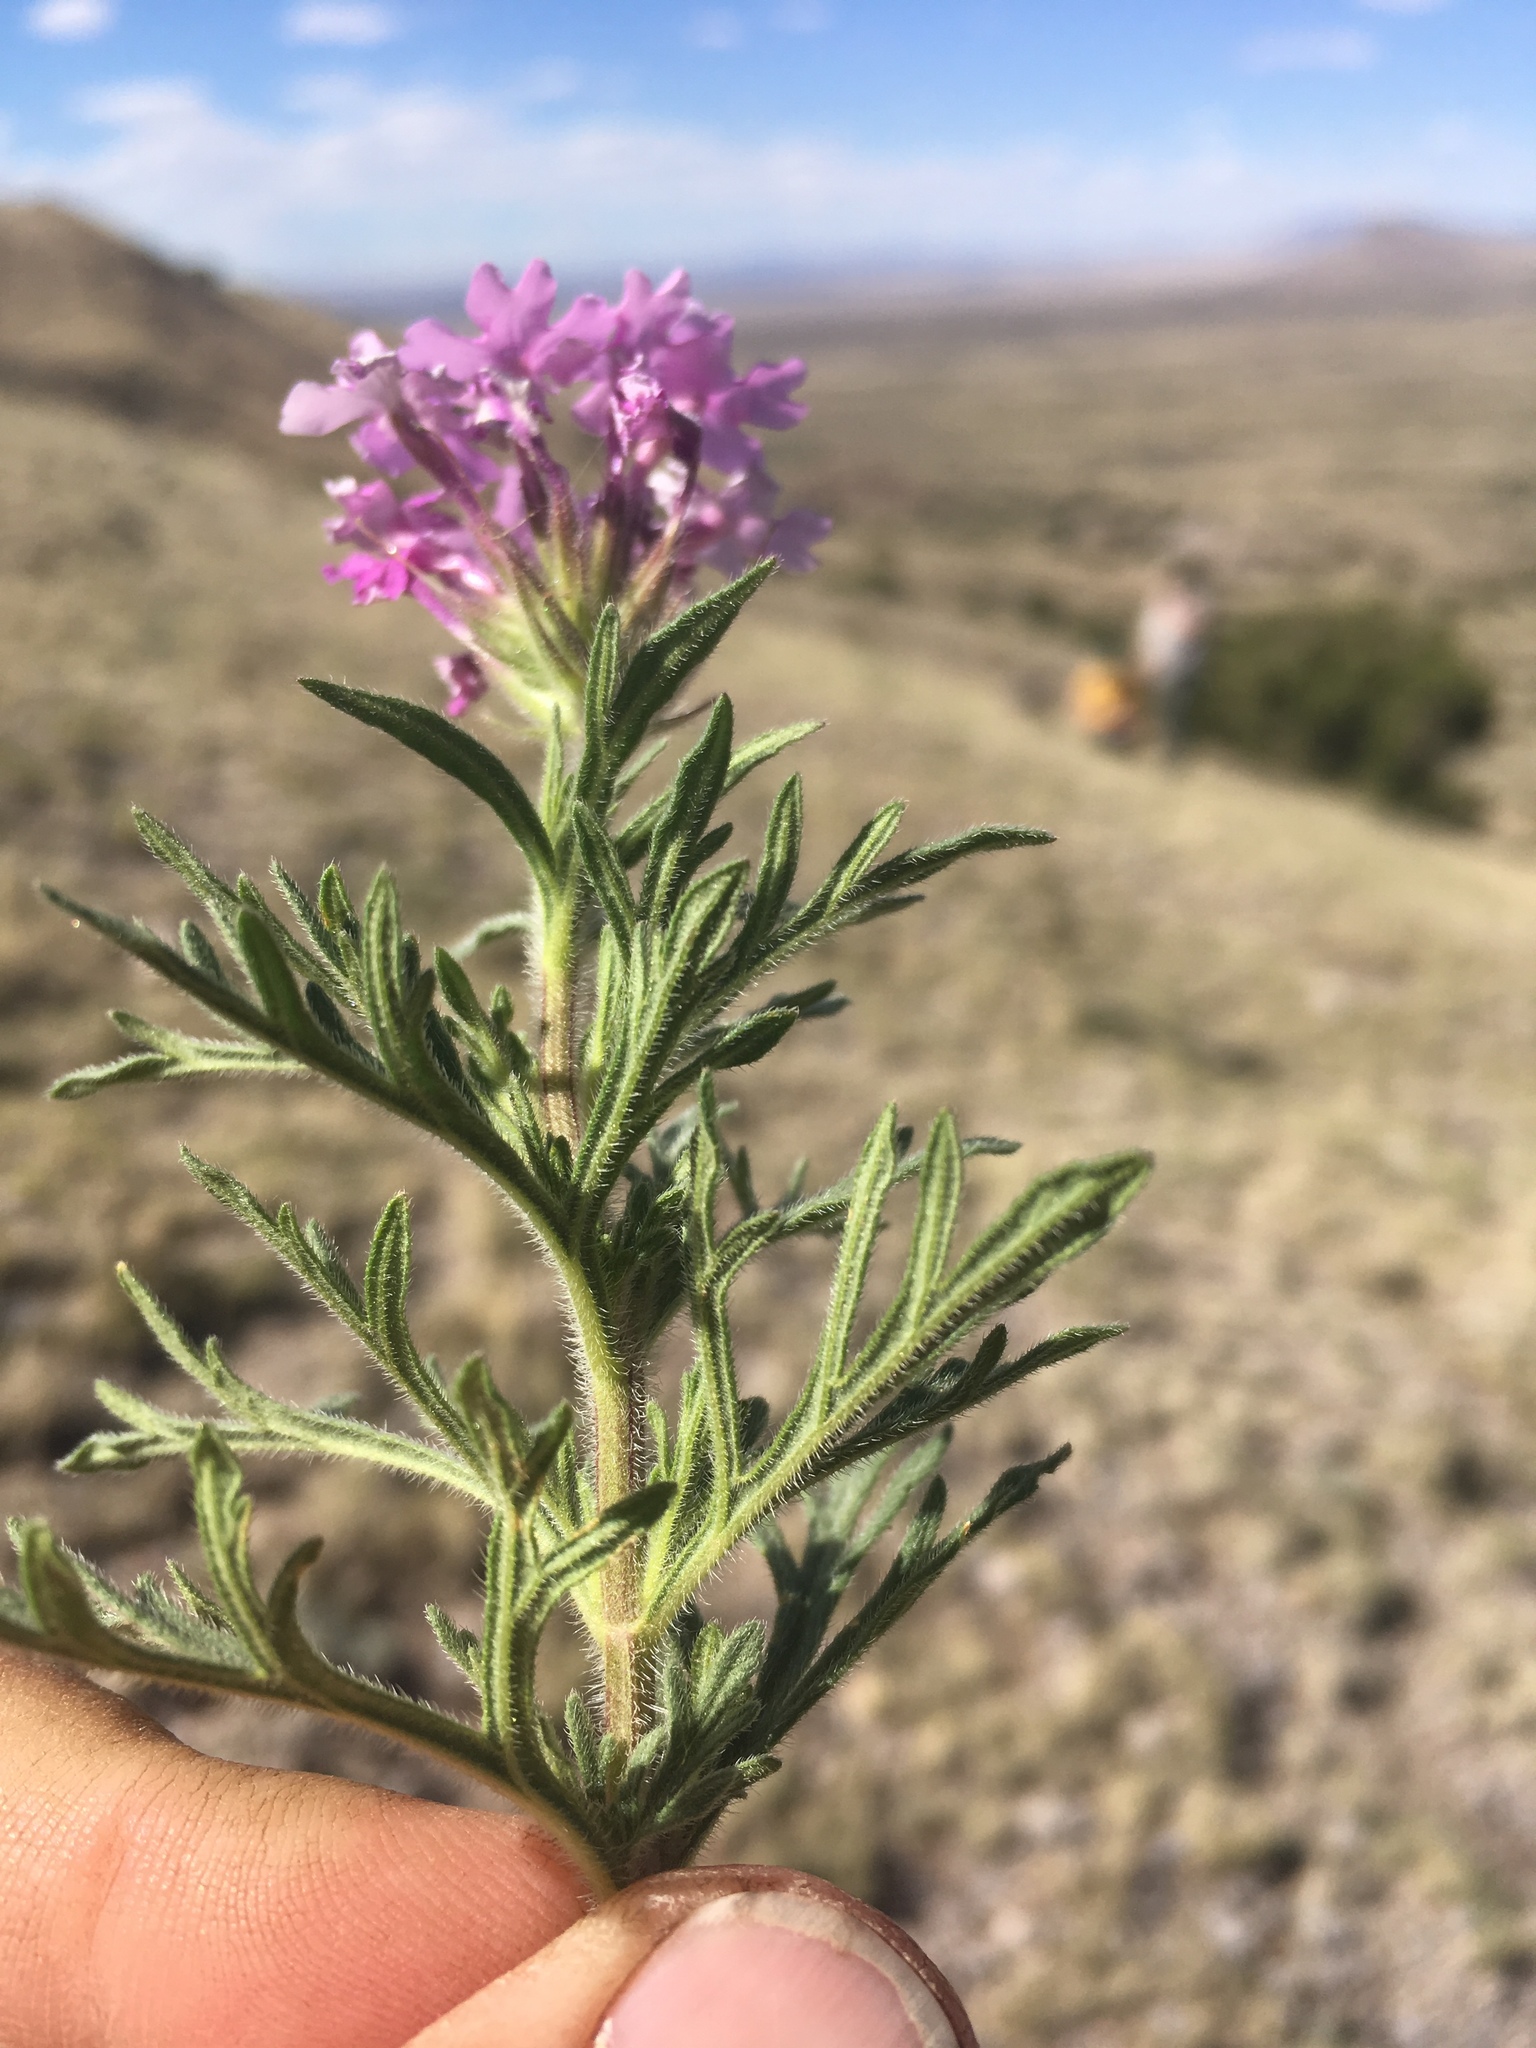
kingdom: Plantae
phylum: Tracheophyta
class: Magnoliopsida
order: Lamiales
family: Verbenaceae
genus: Verbena
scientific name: Verbena bipinnatifida
